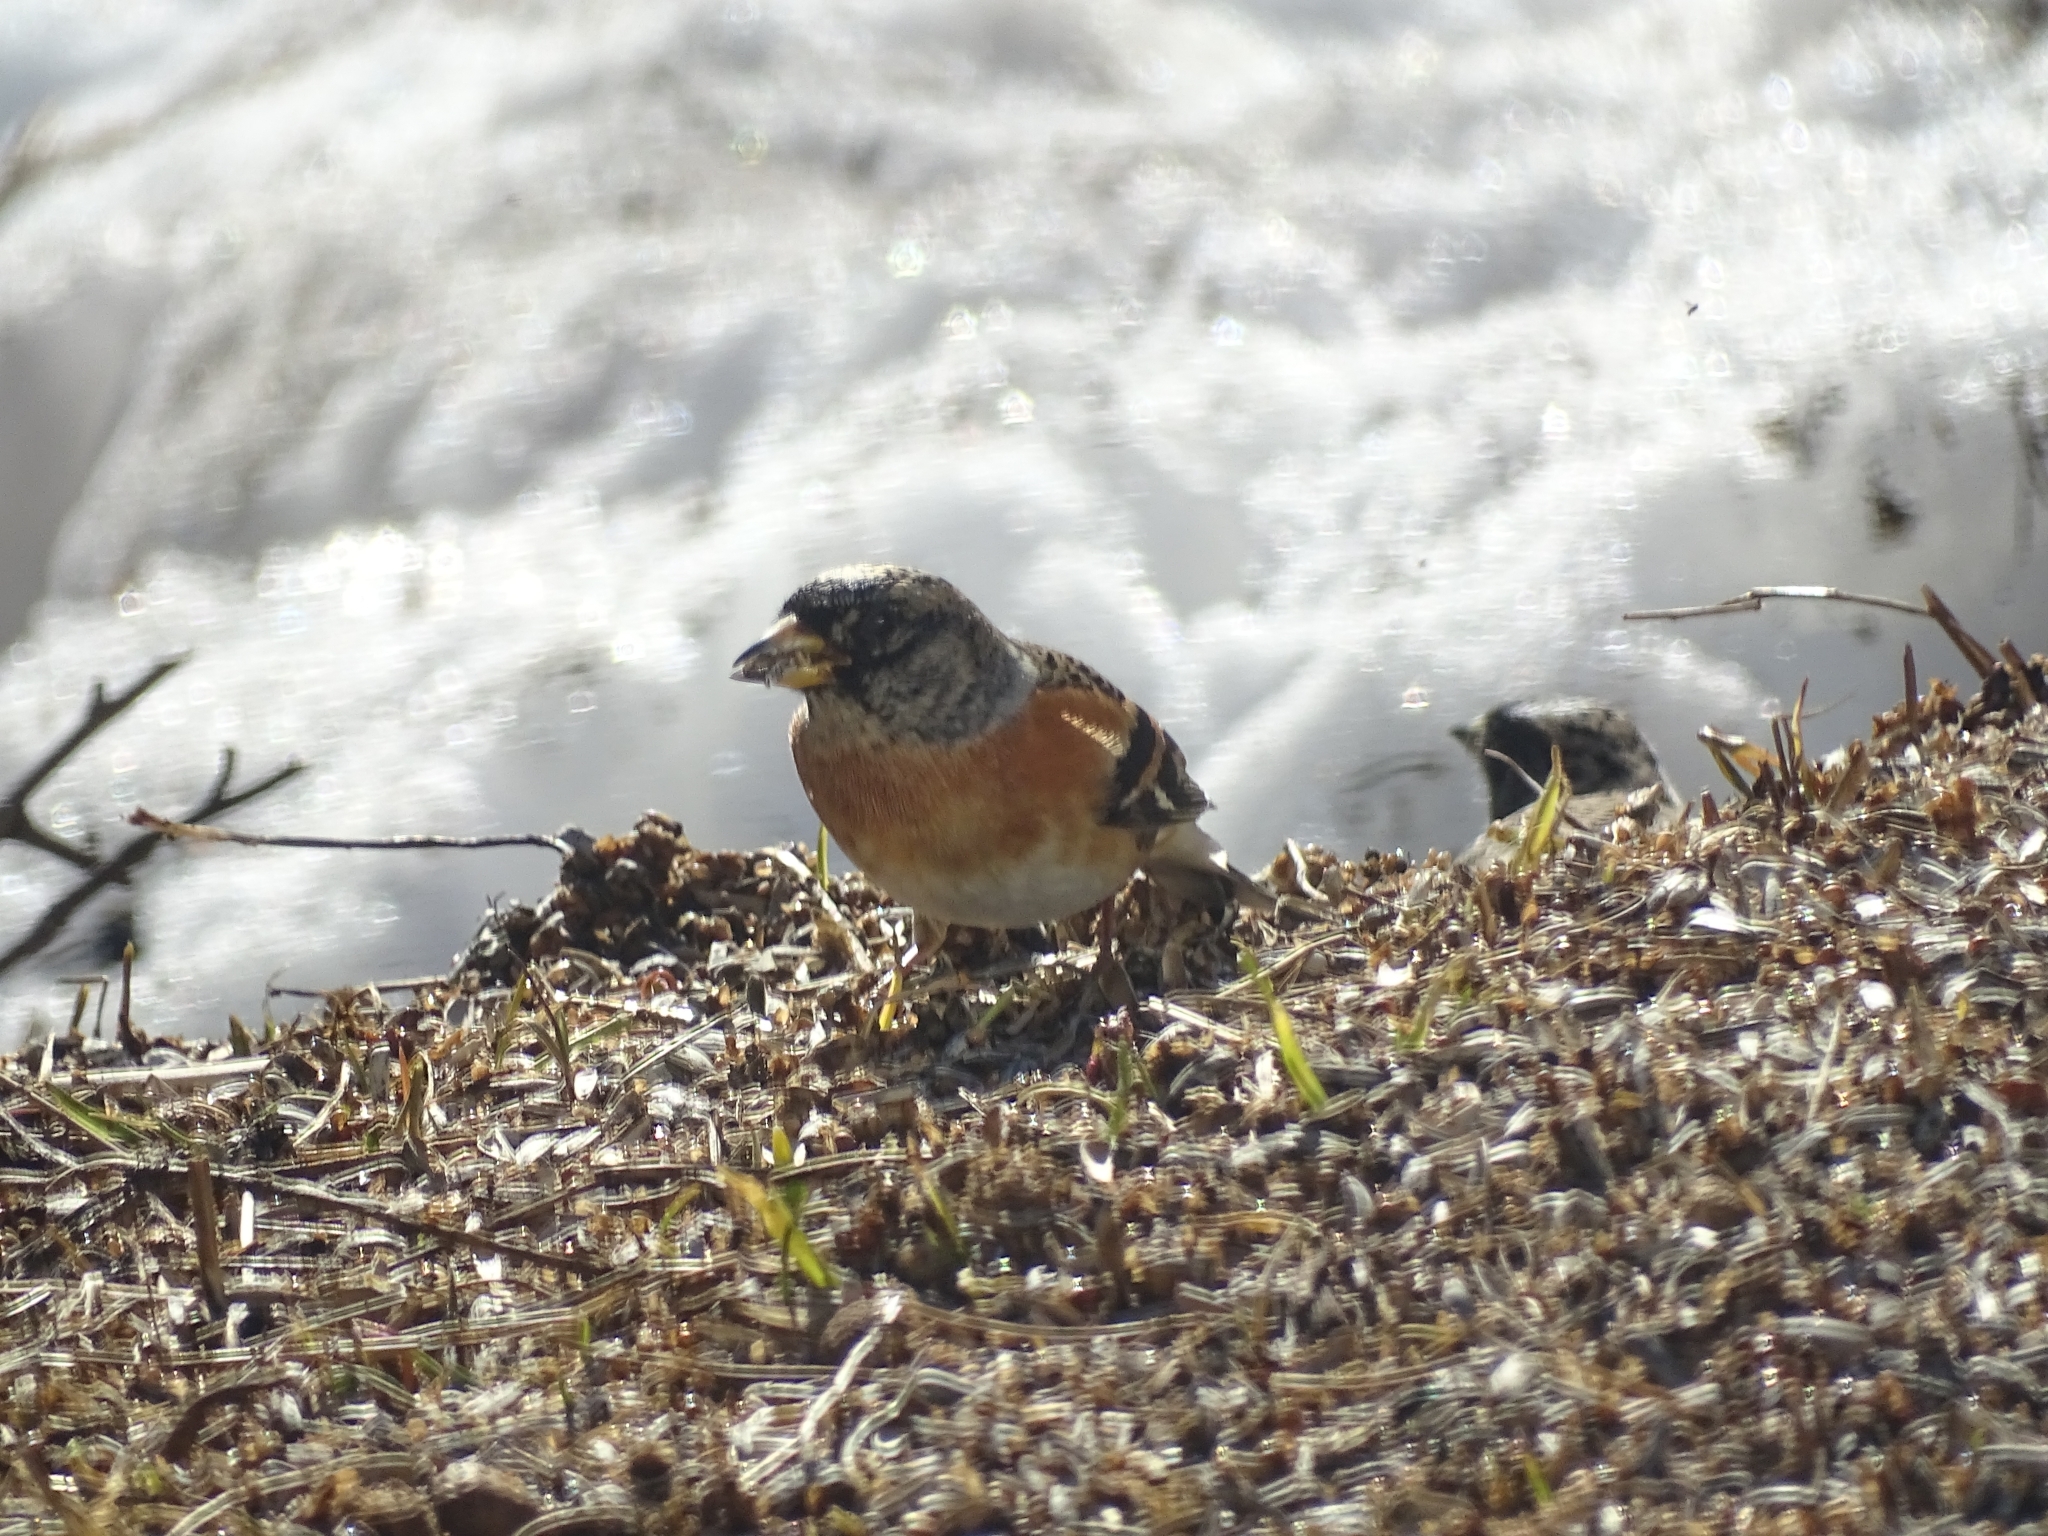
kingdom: Animalia
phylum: Chordata
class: Aves
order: Passeriformes
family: Fringillidae
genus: Fringilla
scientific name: Fringilla montifringilla
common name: Brambling
